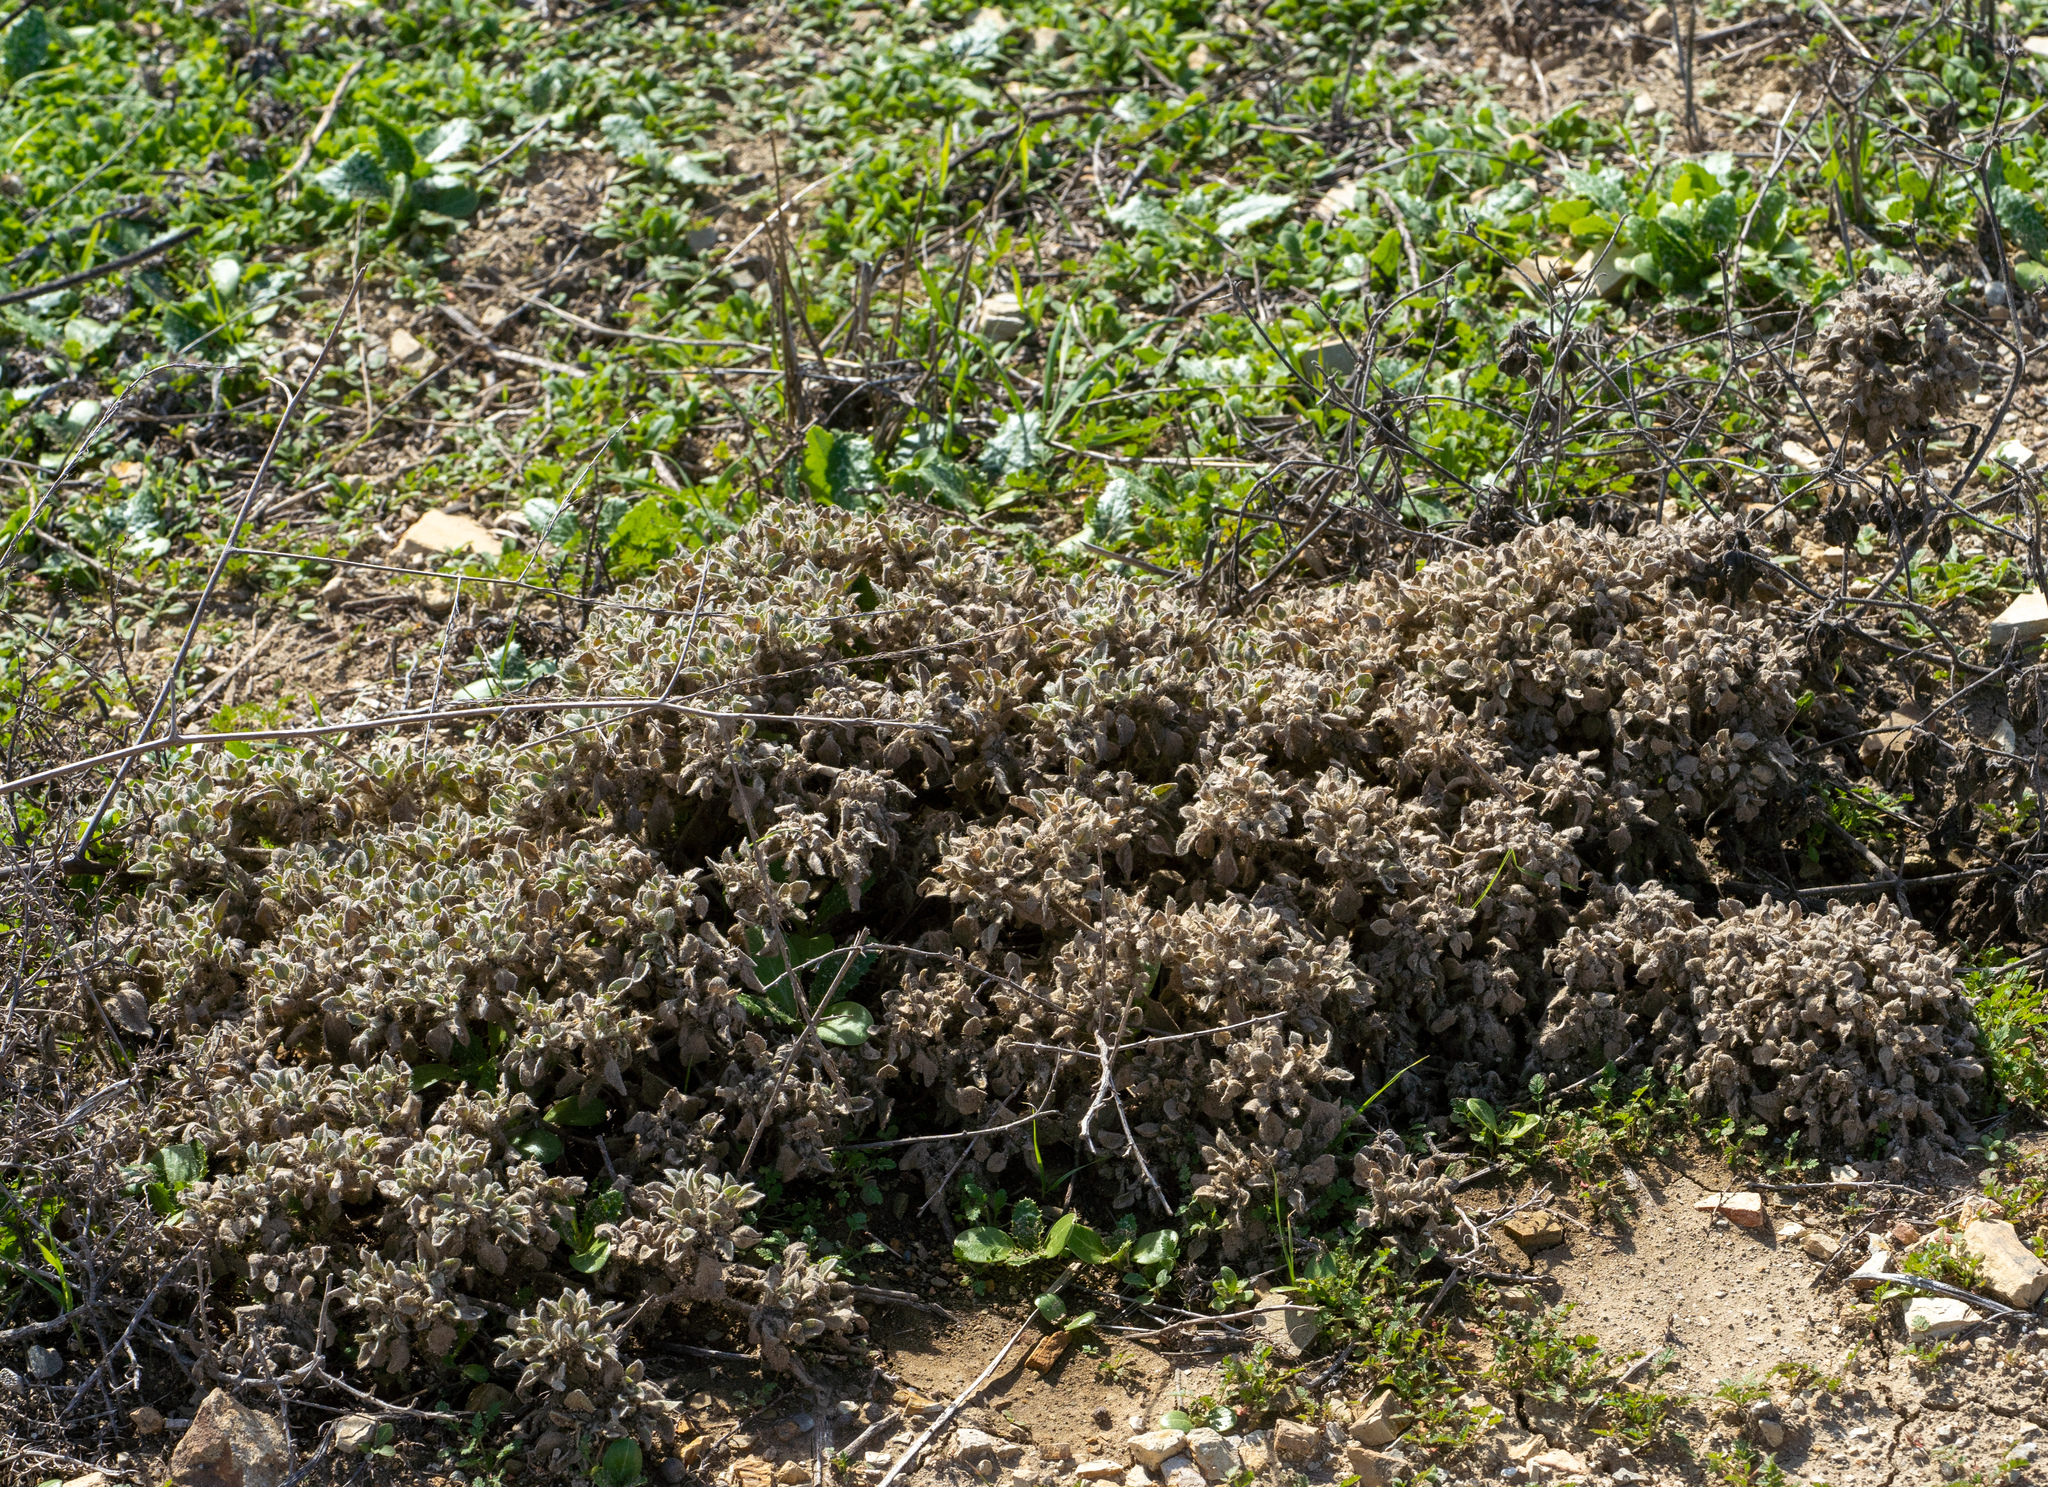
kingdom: Plantae
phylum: Tracheophyta
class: Magnoliopsida
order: Malpighiales
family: Euphorbiaceae
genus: Croton
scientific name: Croton setiger
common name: Dove weed
